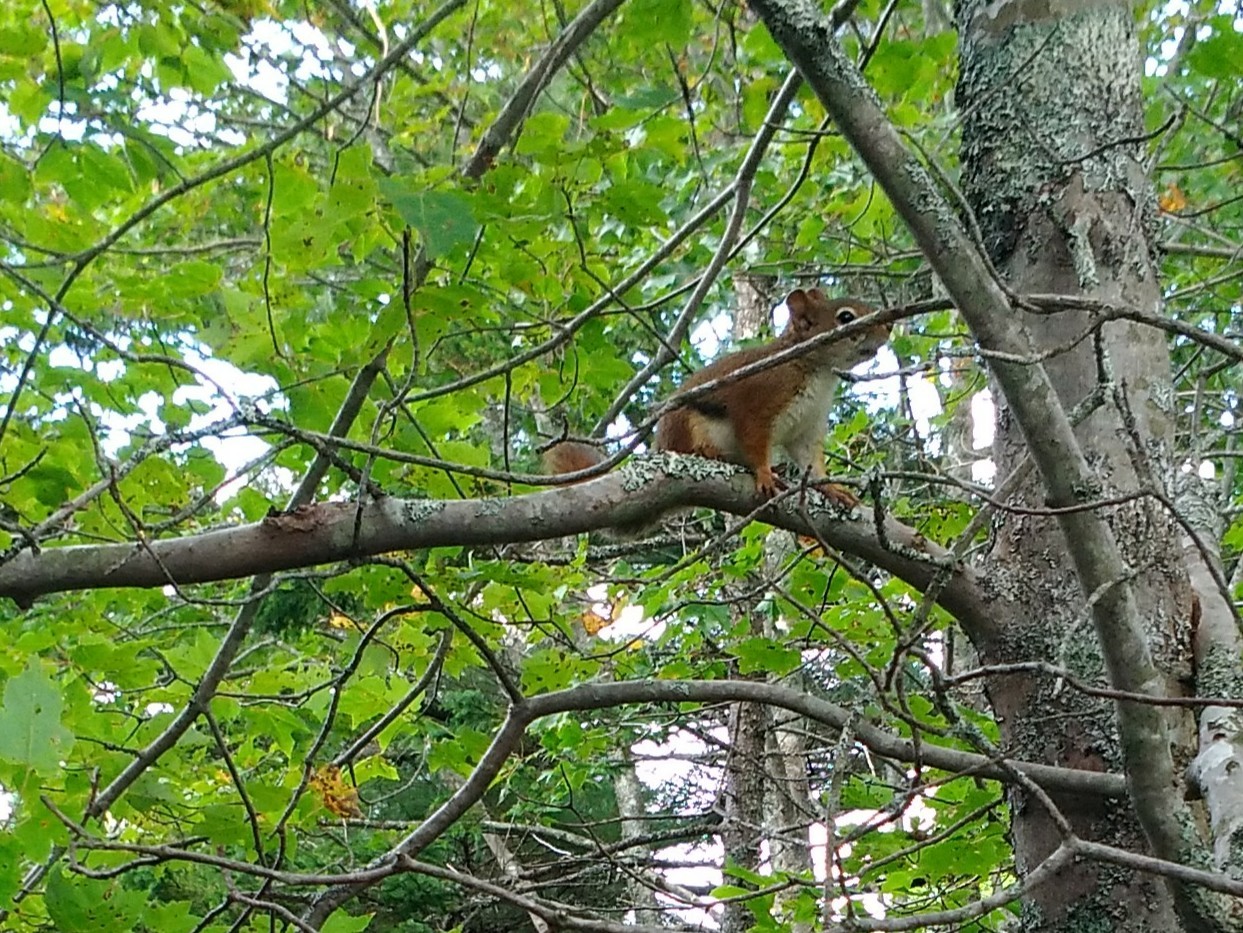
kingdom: Animalia
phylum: Chordata
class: Mammalia
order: Rodentia
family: Sciuridae
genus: Tamiasciurus
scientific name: Tamiasciurus hudsonicus
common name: Red squirrel
